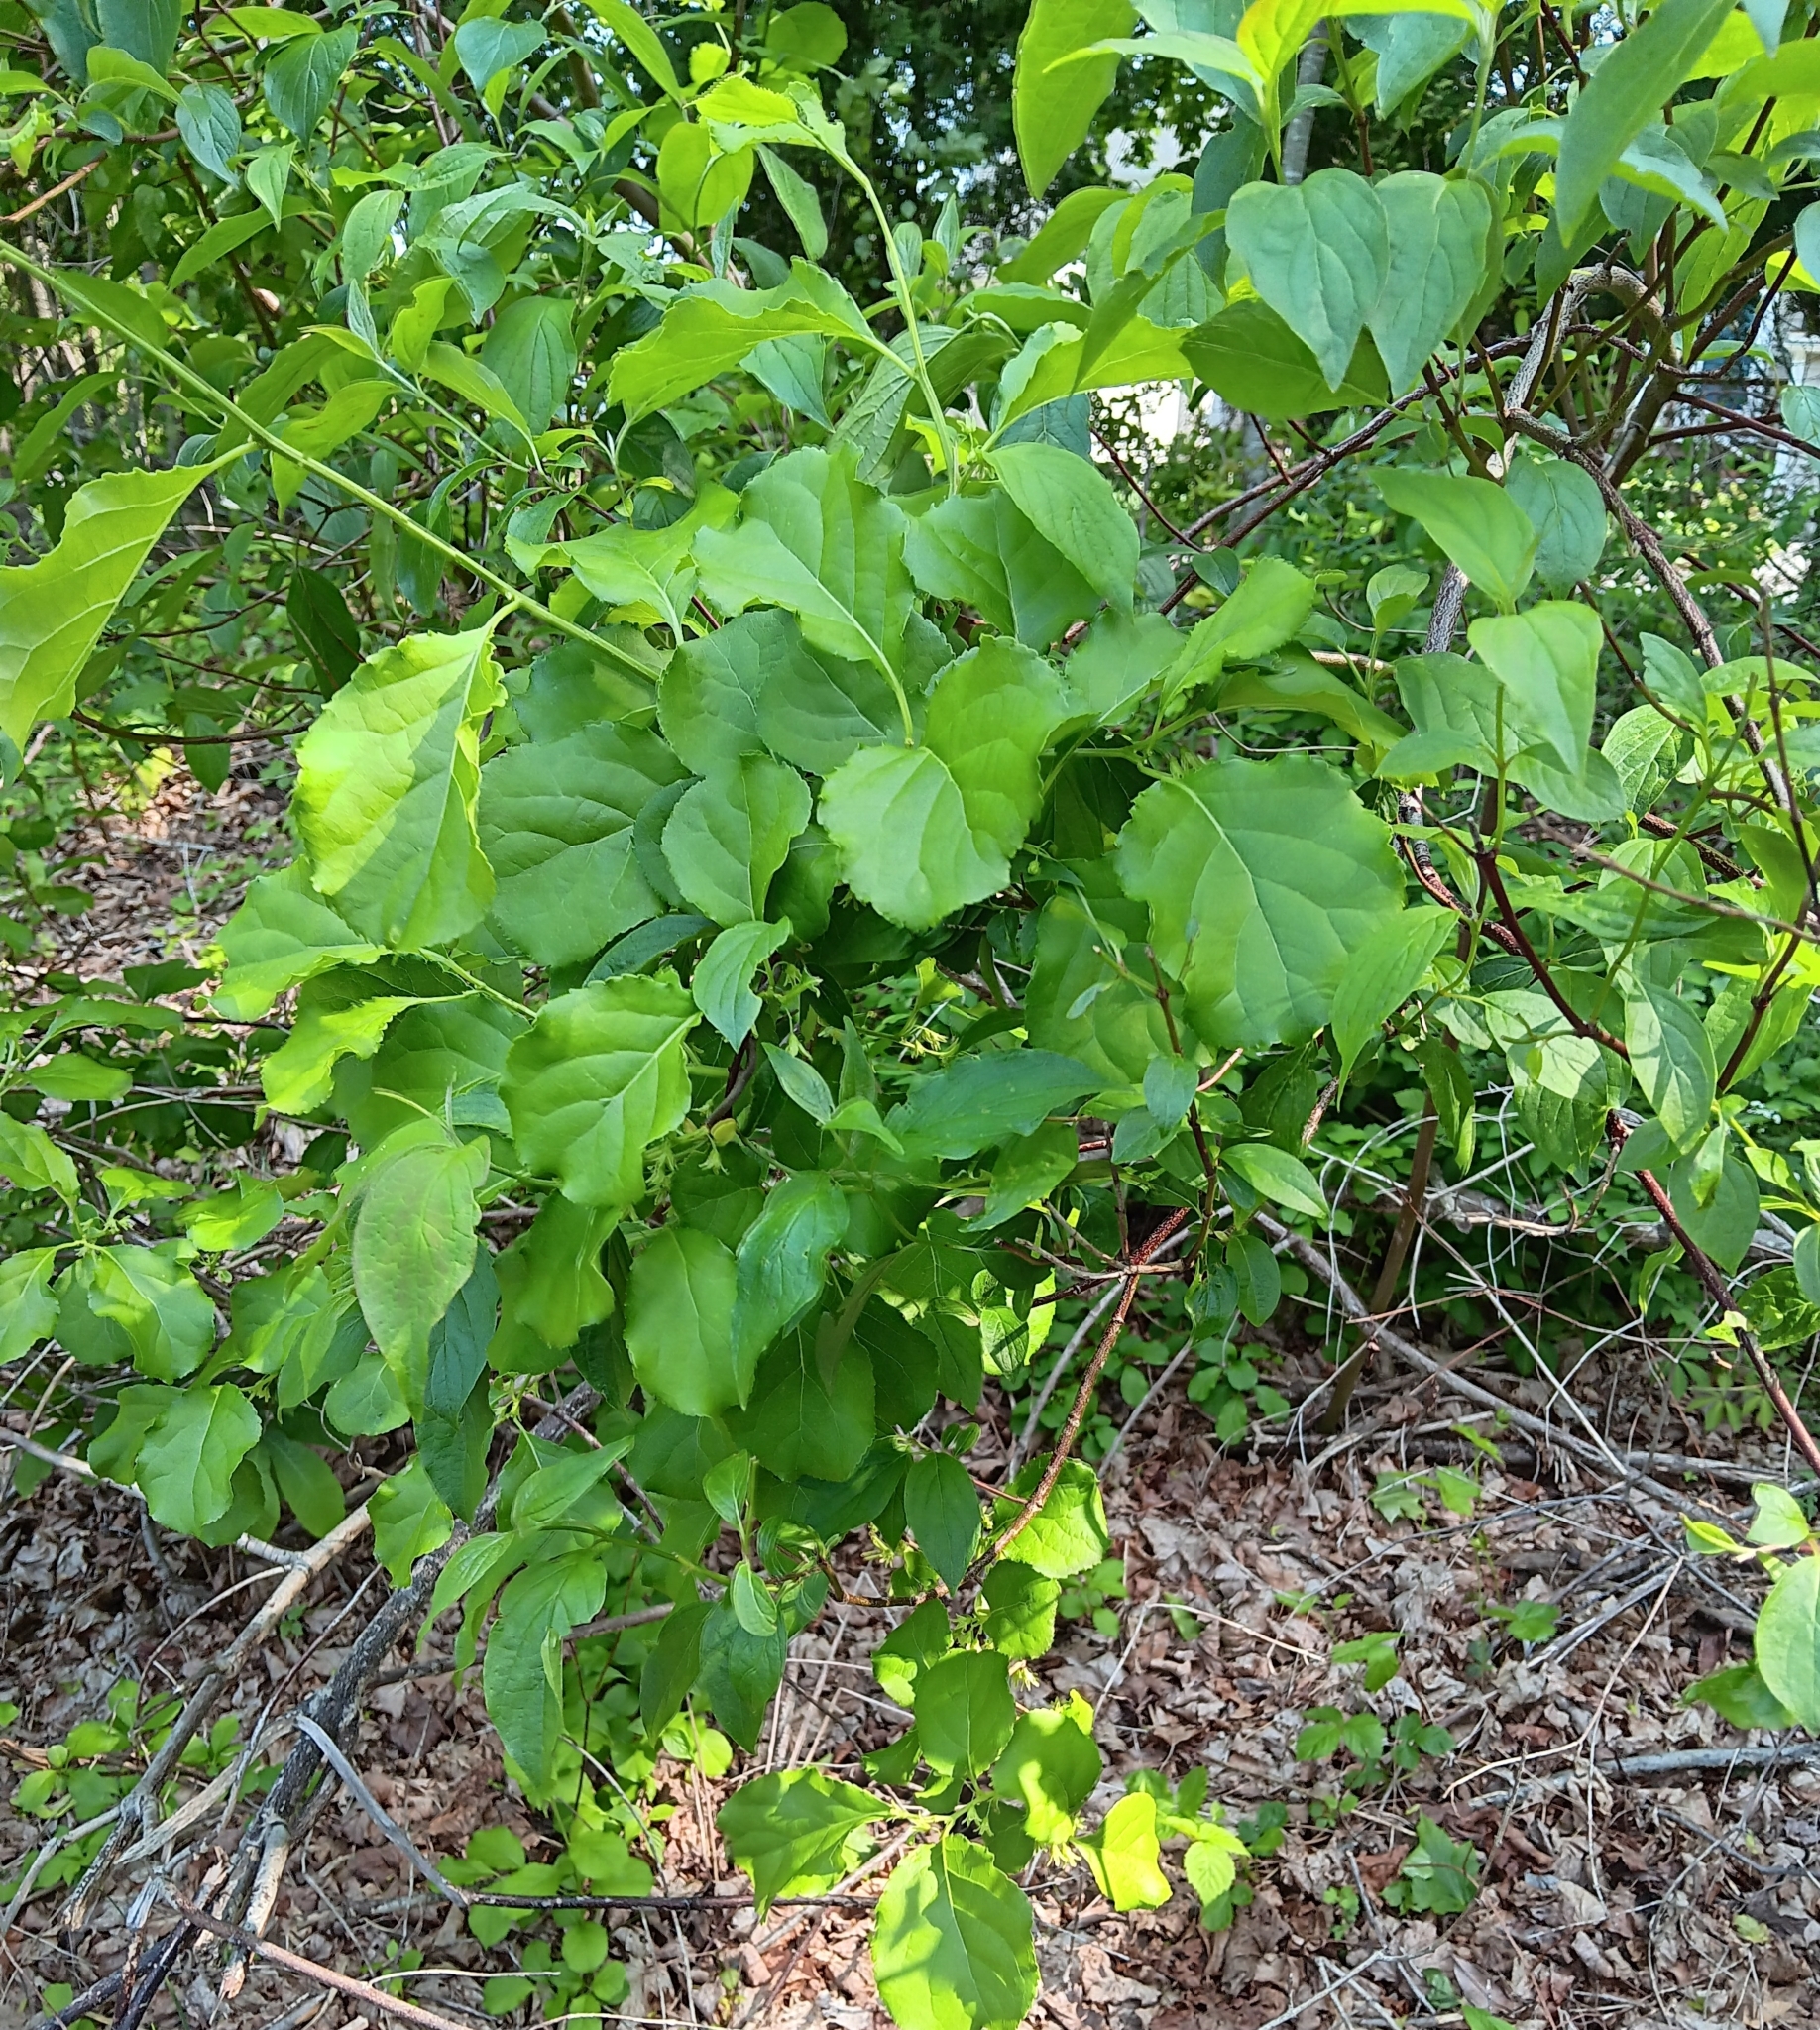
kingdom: Plantae
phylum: Tracheophyta
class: Magnoliopsida
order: Celastrales
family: Celastraceae
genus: Celastrus
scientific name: Celastrus orbiculatus
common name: Oriental bittersweet
